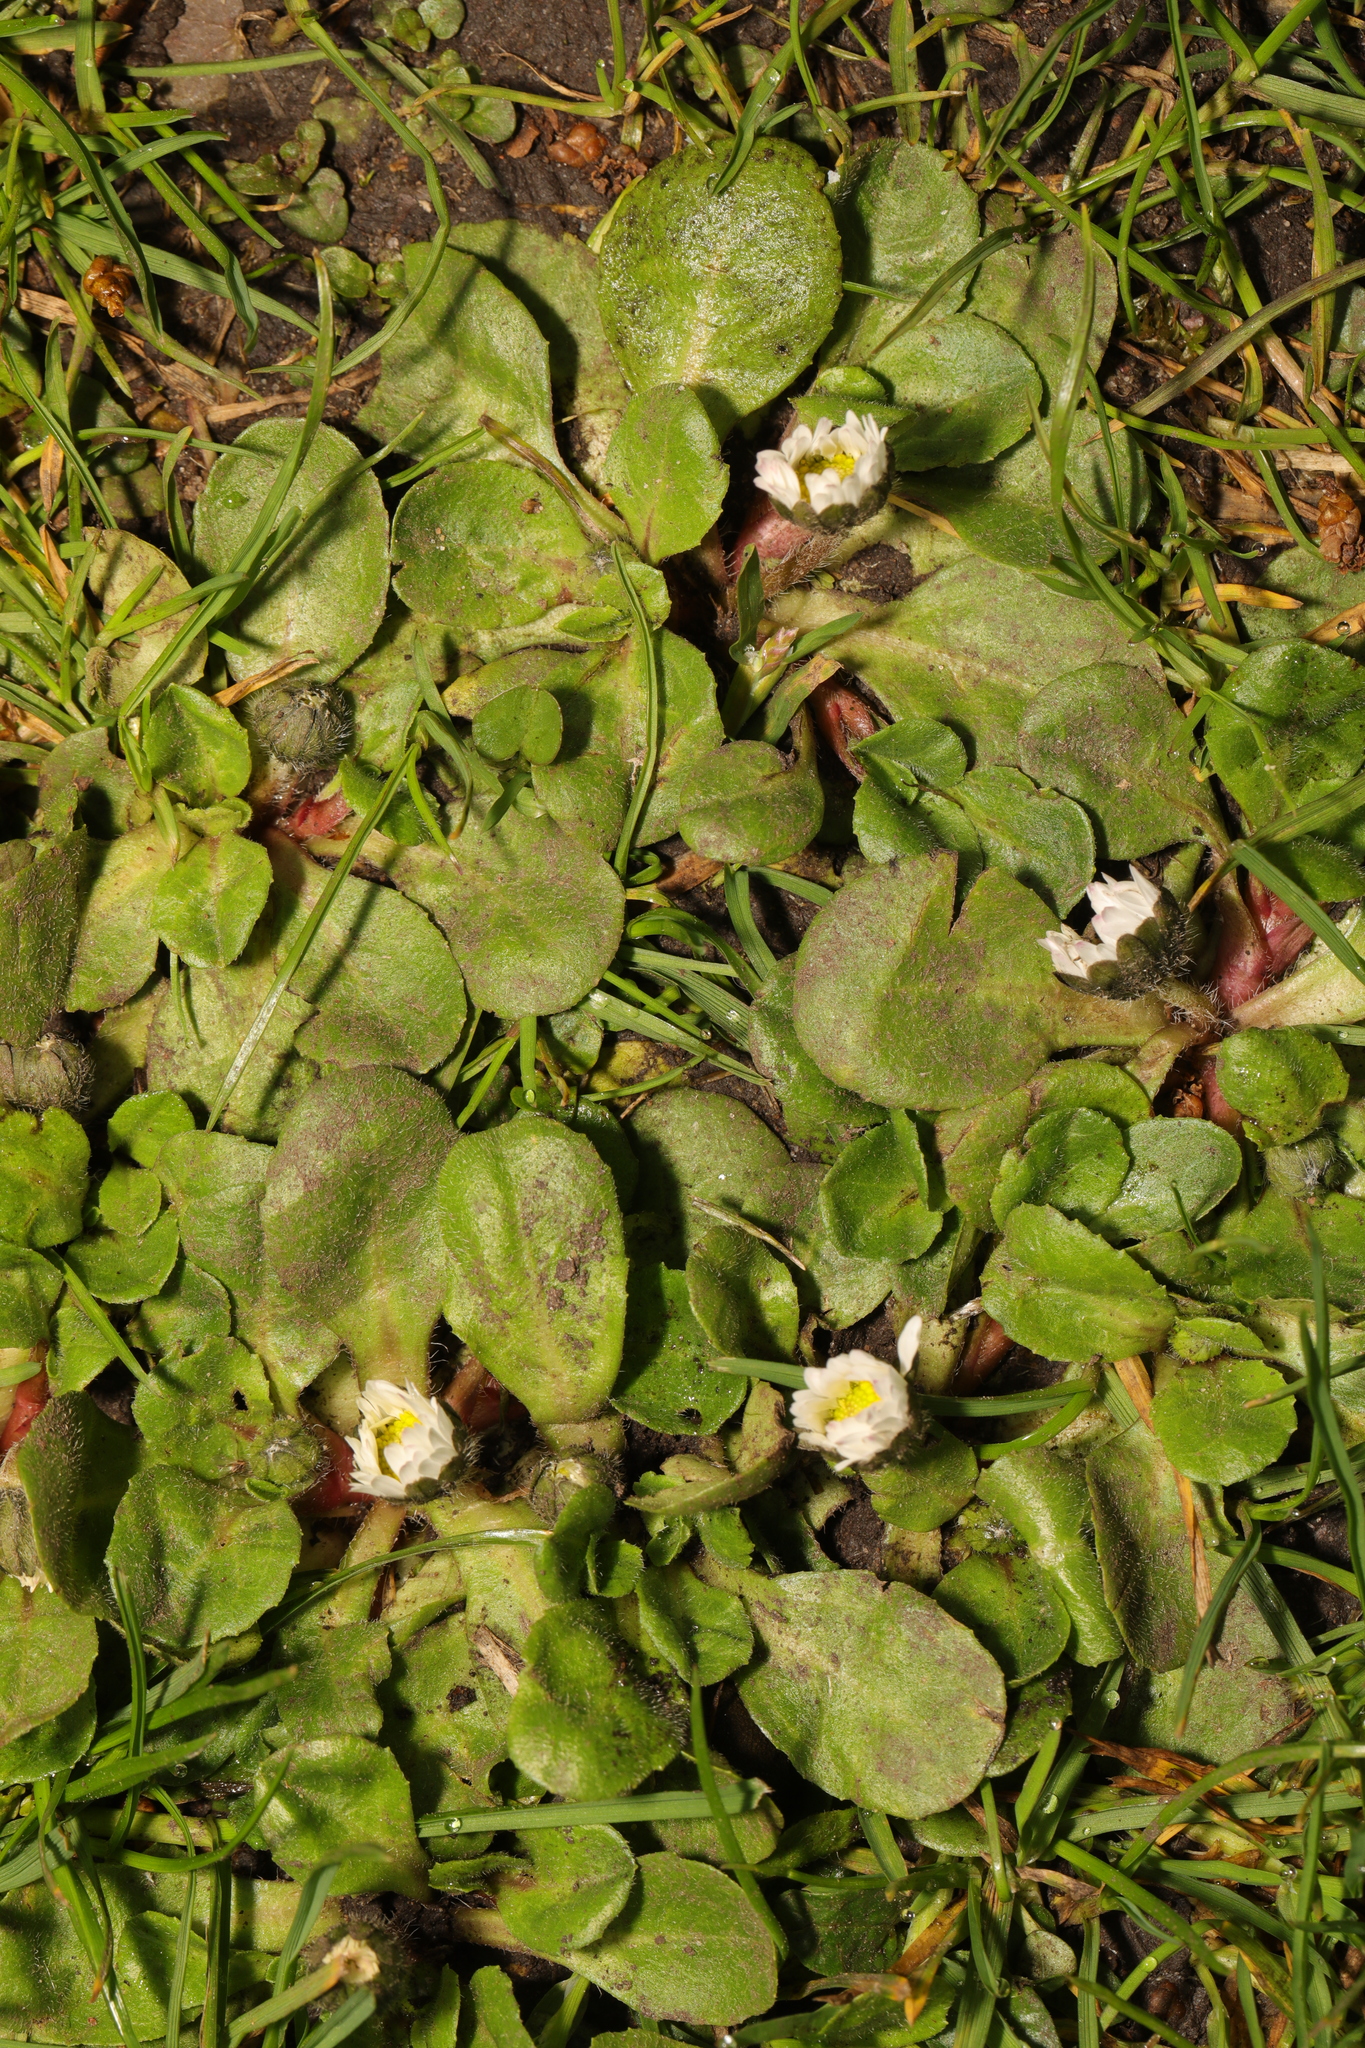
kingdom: Plantae
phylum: Tracheophyta
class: Magnoliopsida
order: Asterales
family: Asteraceae
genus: Bellis
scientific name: Bellis perennis
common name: Lawndaisy
